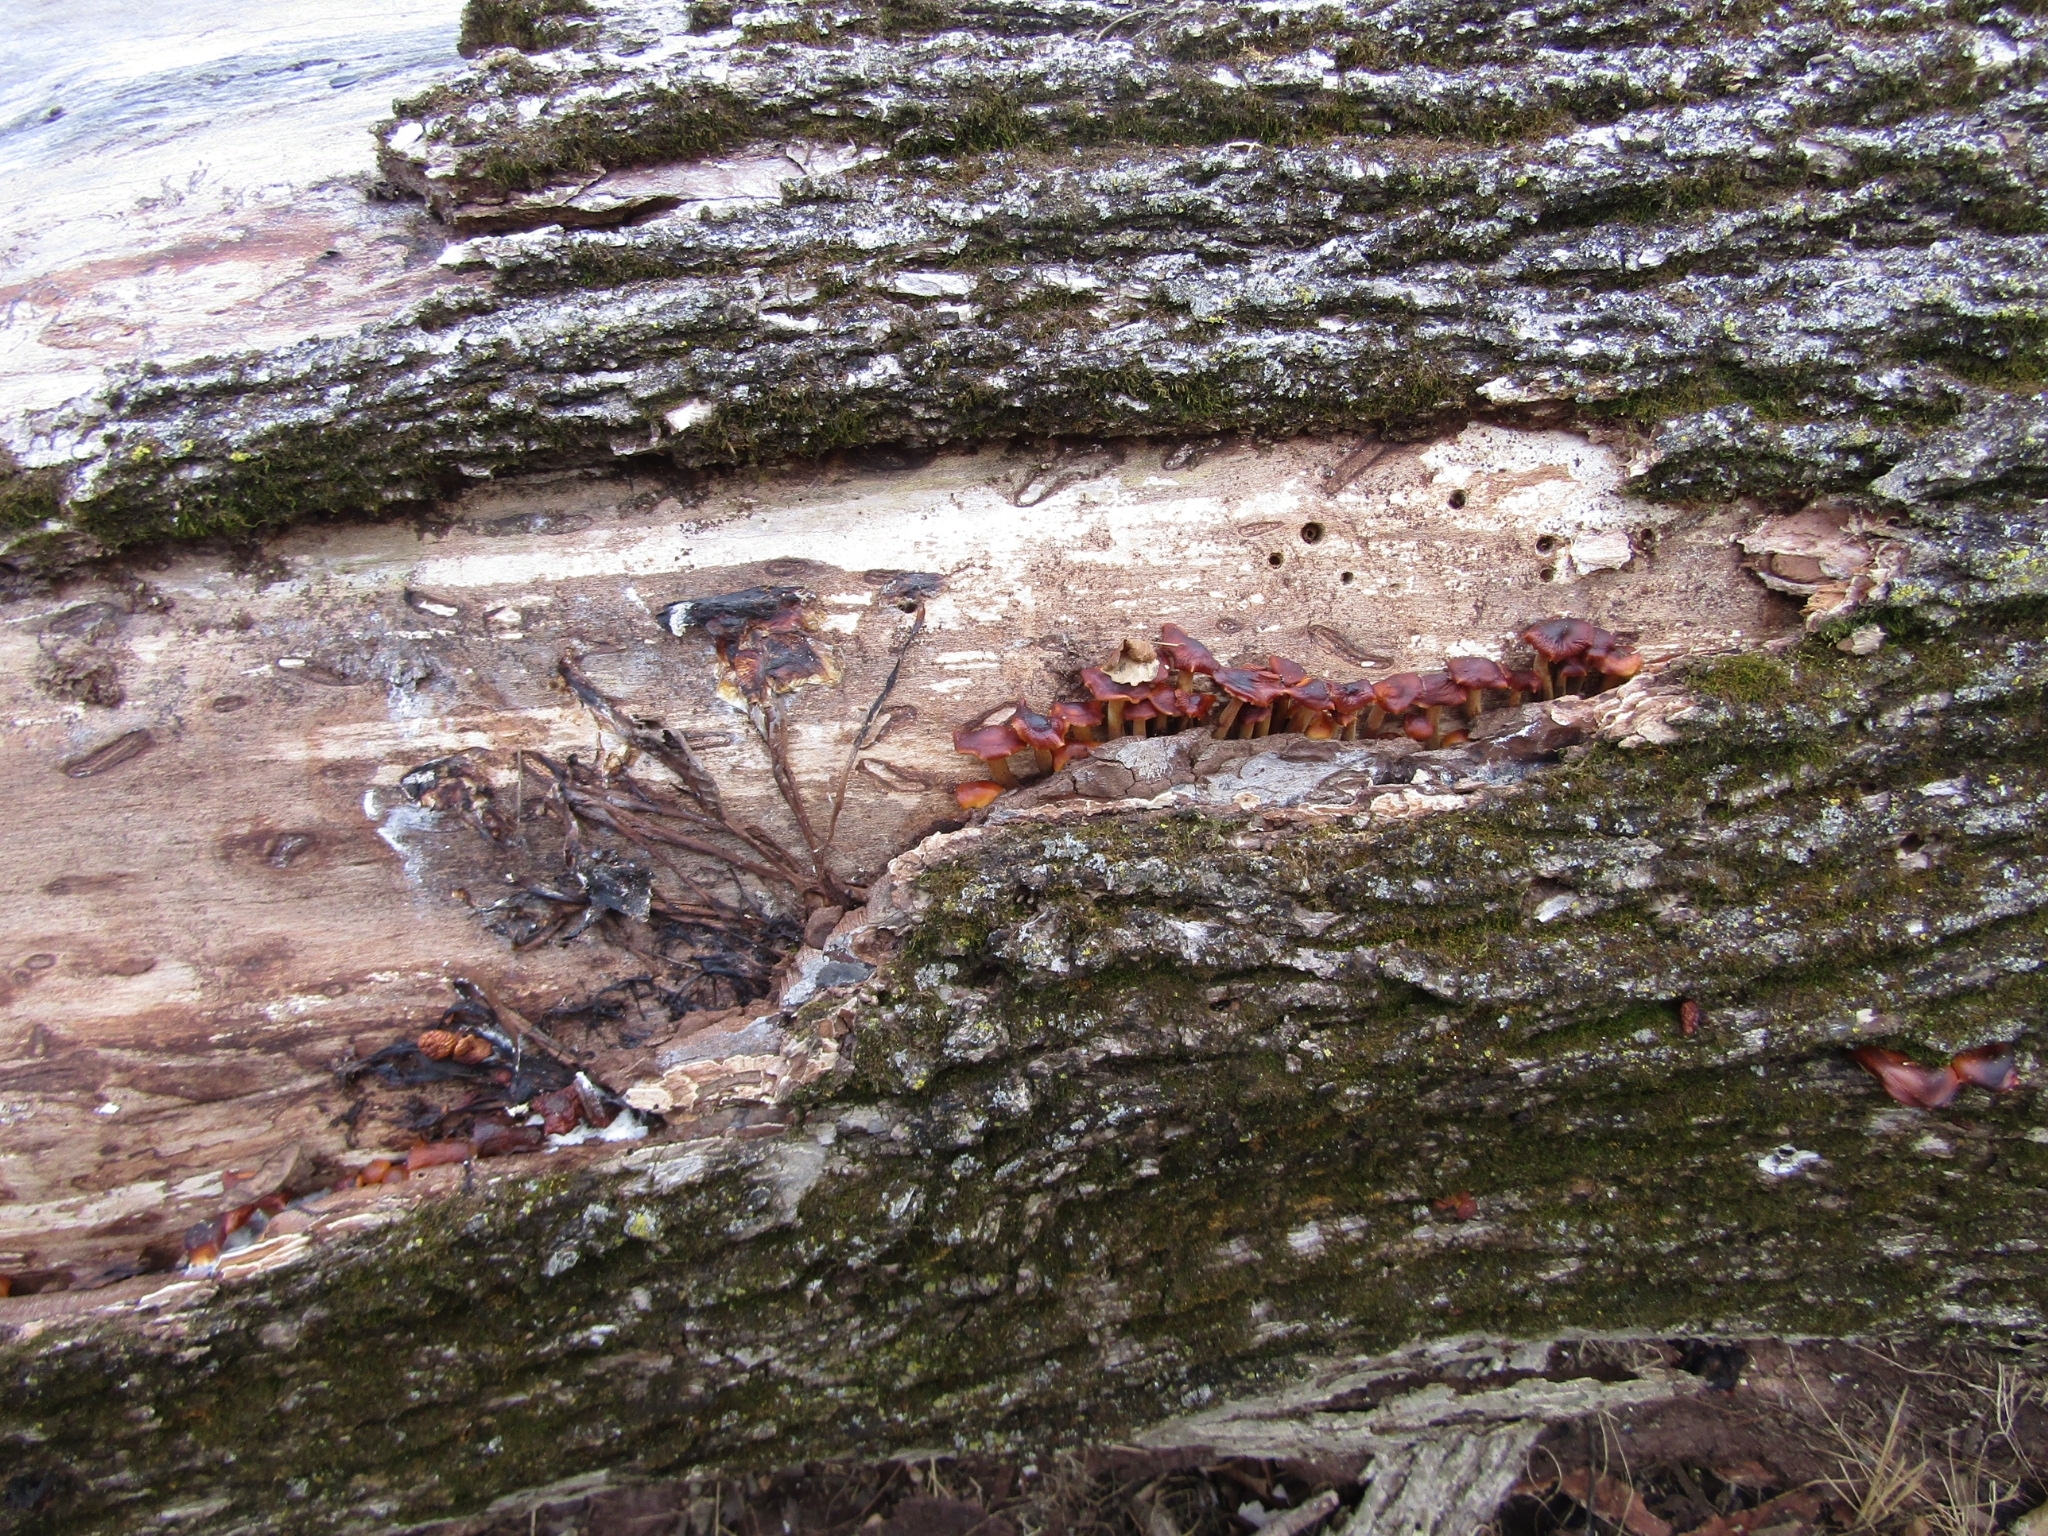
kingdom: Fungi
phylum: Basidiomycota
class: Agaricomycetes
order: Agaricales
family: Physalacriaceae
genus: Flammulina
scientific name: Flammulina velutipes
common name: Velvet shank
